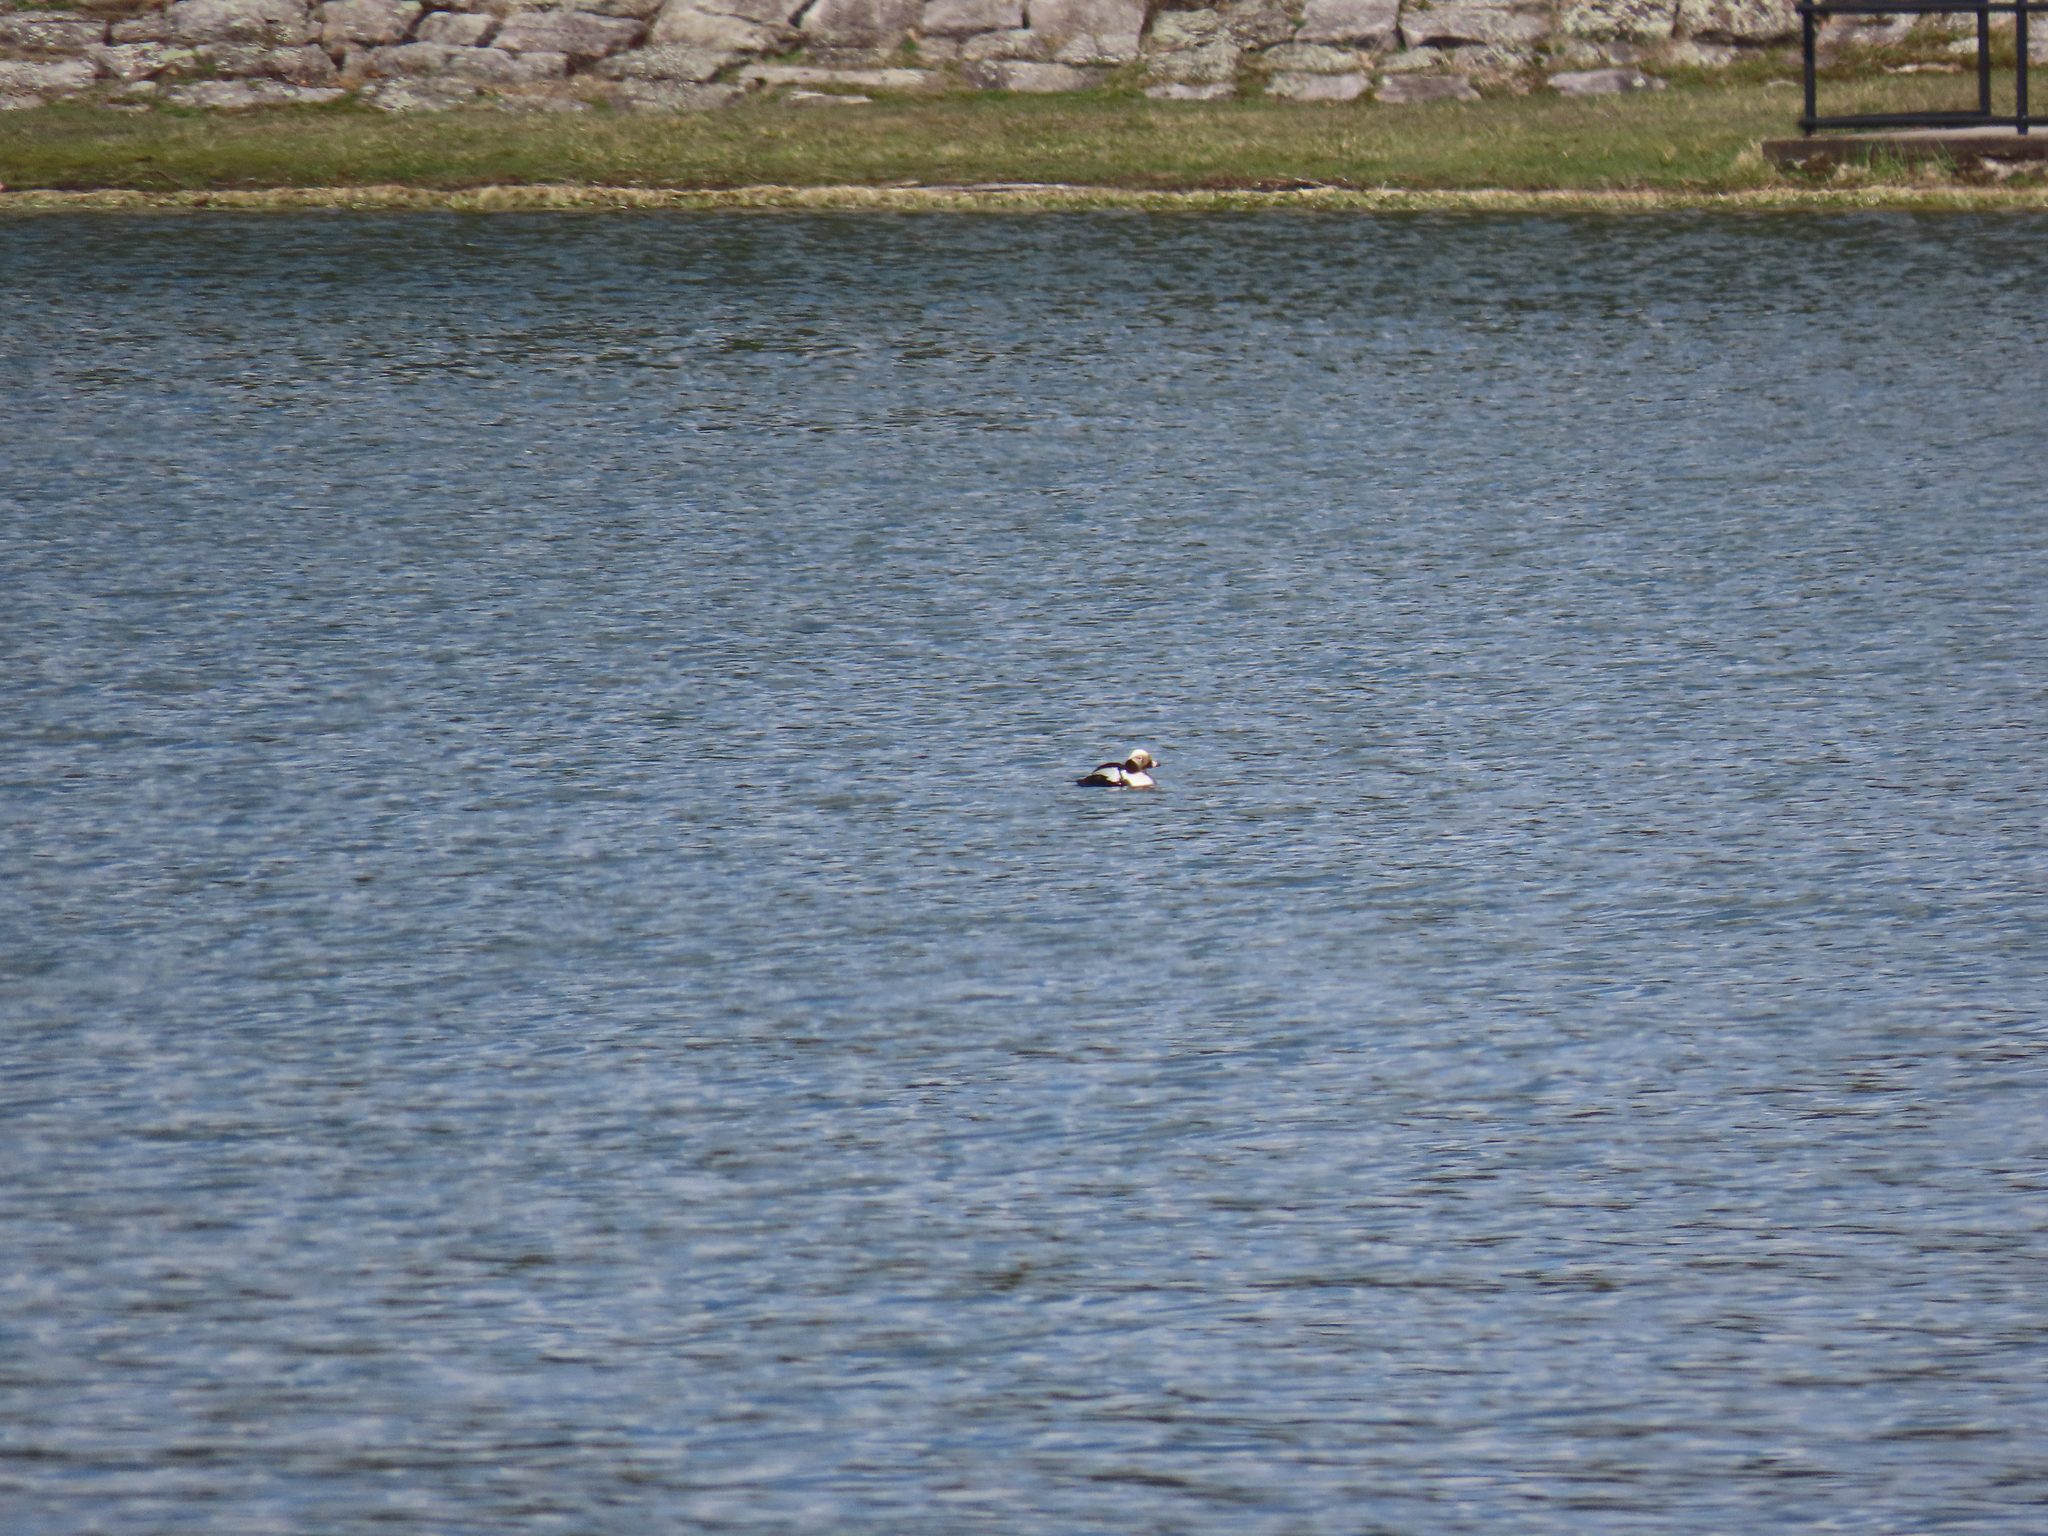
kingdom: Animalia
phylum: Chordata
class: Aves
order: Anseriformes
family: Anatidae
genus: Clangula
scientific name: Clangula hyemalis
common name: Long-tailed duck
